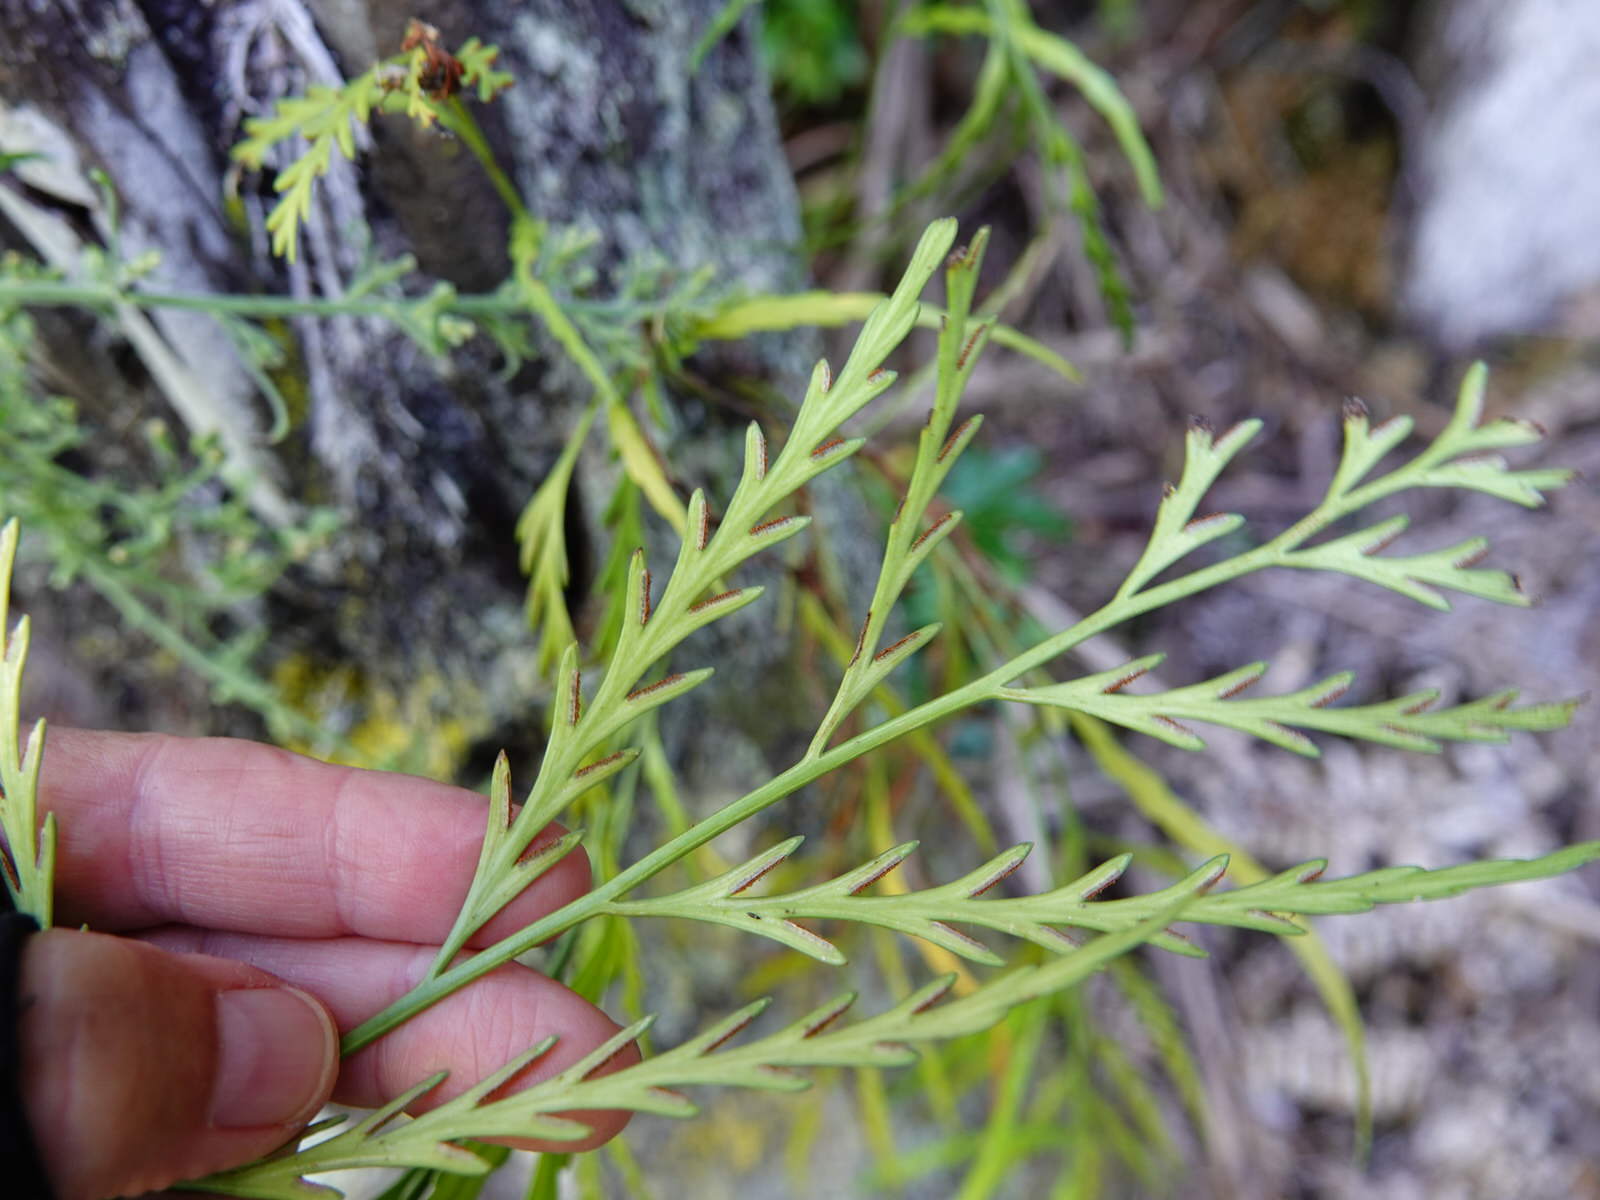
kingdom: Plantae
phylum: Tracheophyta
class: Polypodiopsida
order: Polypodiales
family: Aspleniaceae
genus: Asplenium
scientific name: Asplenium flaccidum
